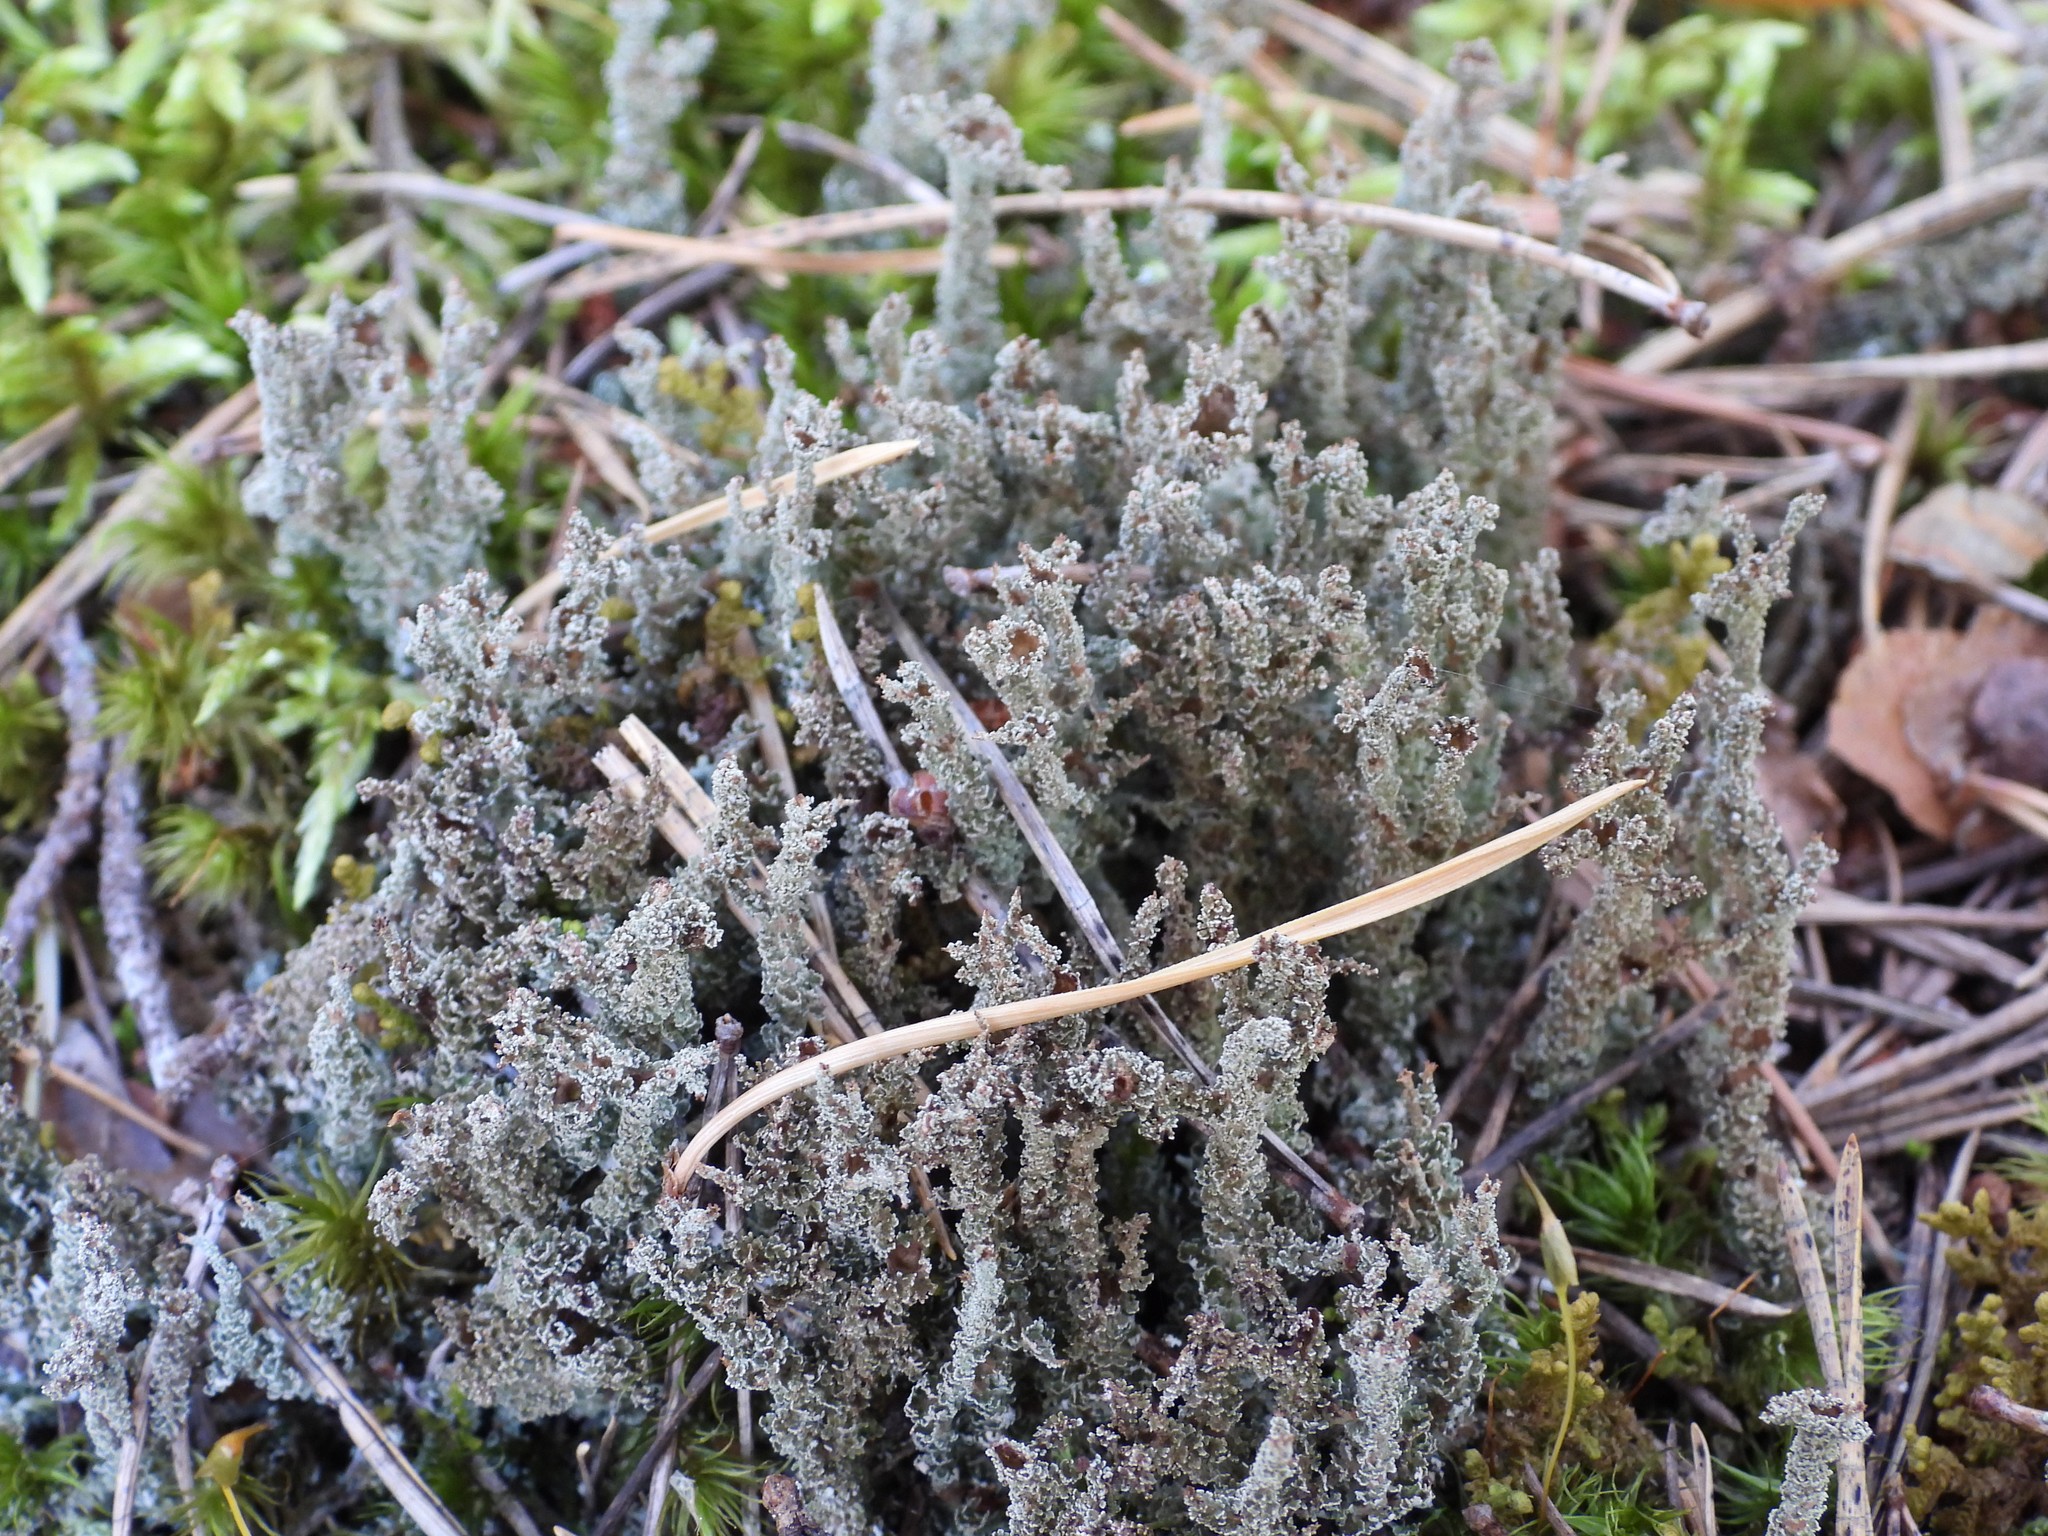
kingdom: Fungi
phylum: Ascomycota
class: Lecanoromycetes
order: Lecanorales
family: Cladoniaceae
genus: Cladonia
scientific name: Cladonia squamosa
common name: Dragon horn
